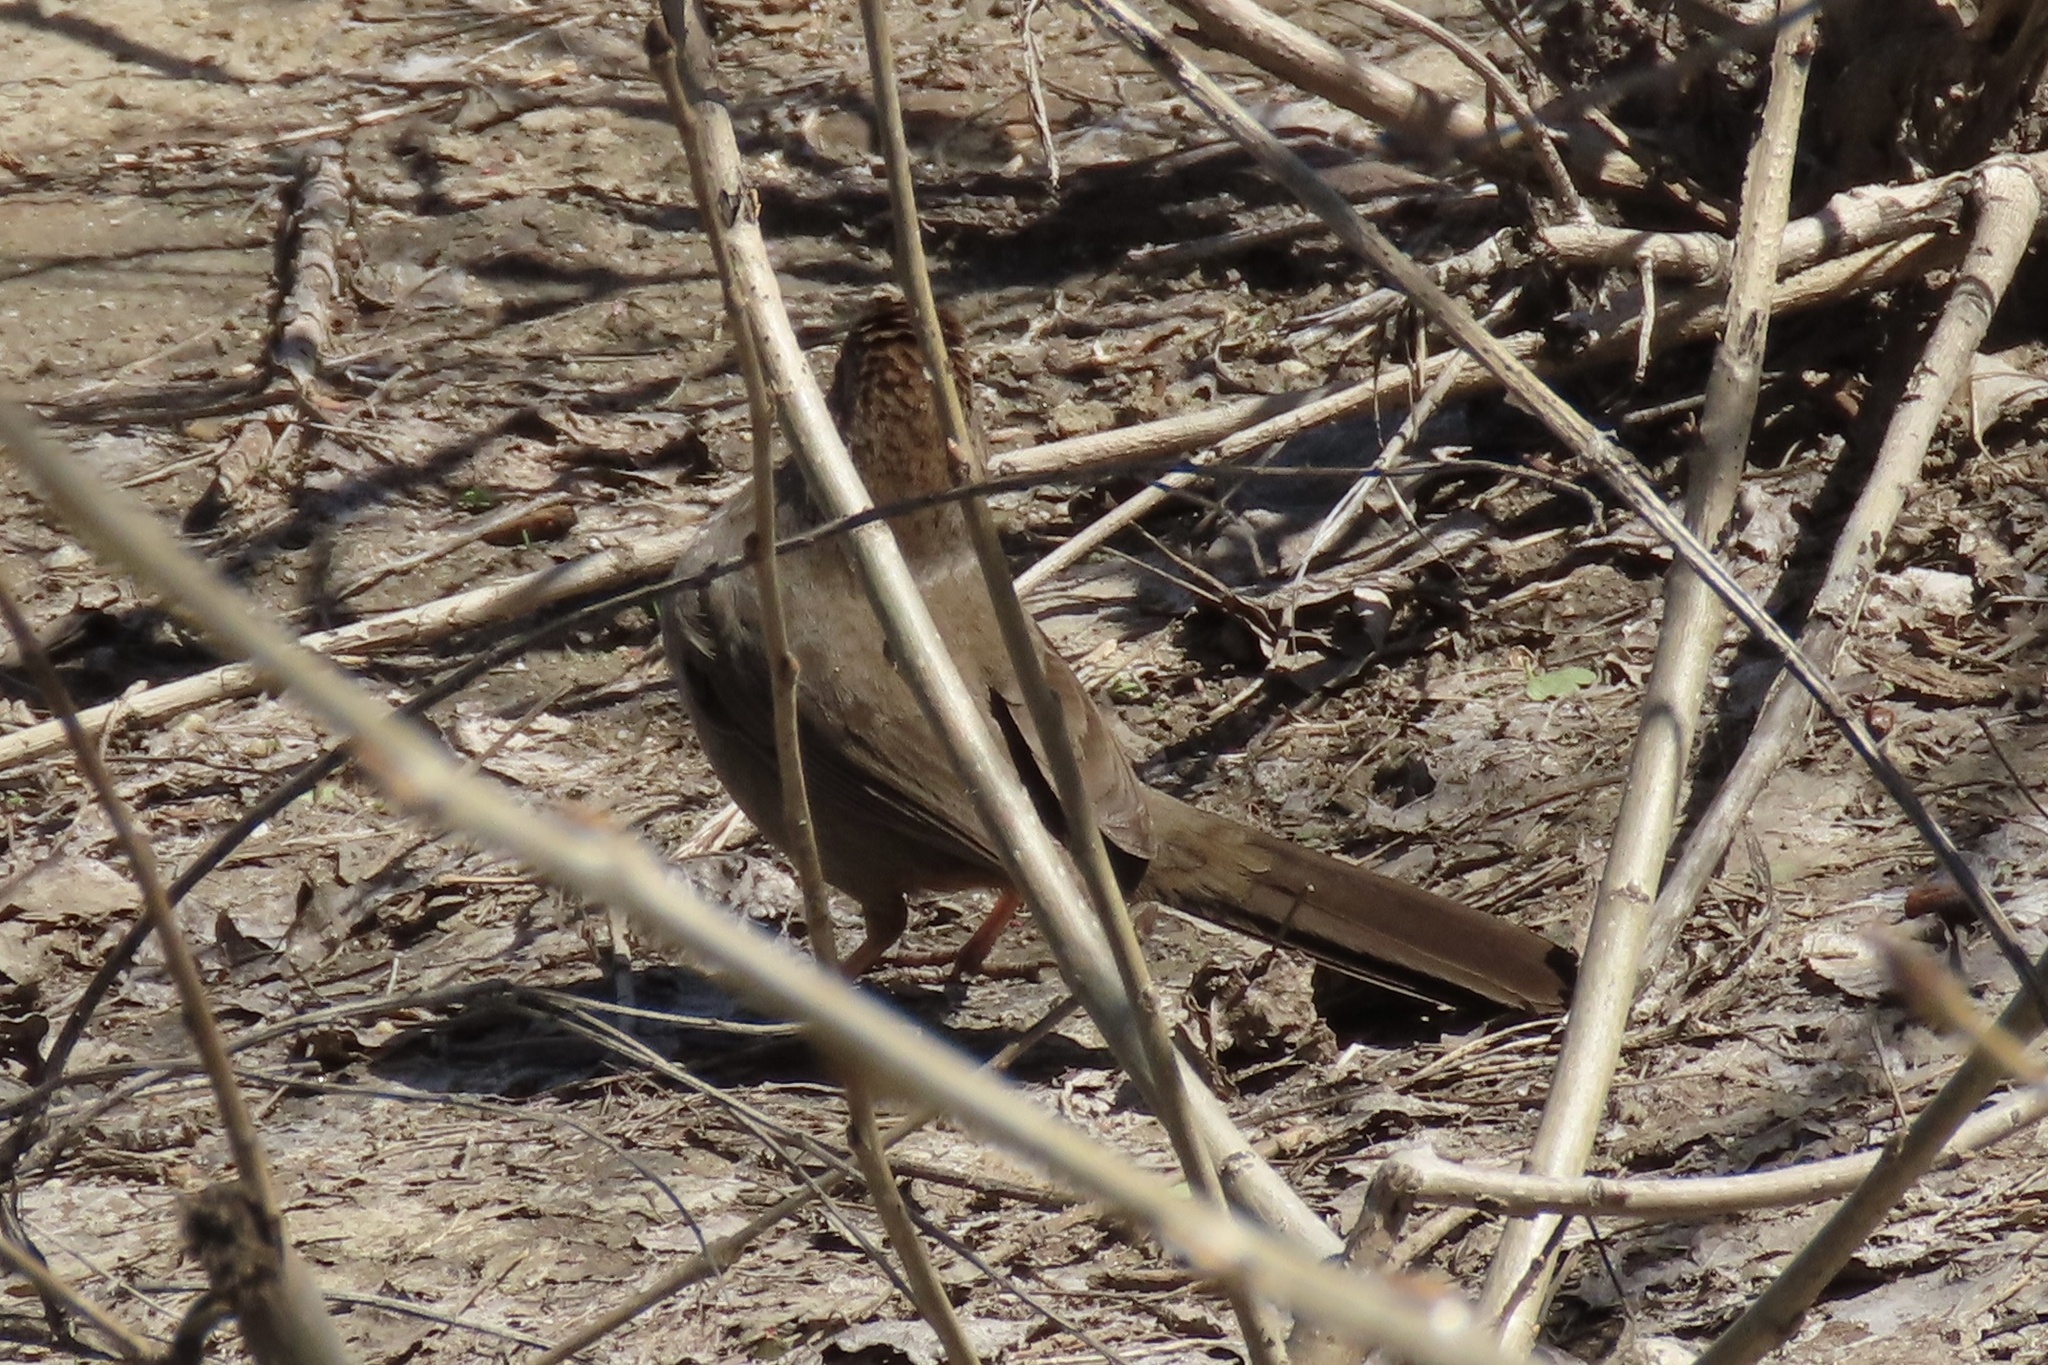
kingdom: Animalia
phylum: Chordata
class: Aves
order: Passeriformes
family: Passerellidae
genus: Melozone
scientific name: Melozone crissalis
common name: California towhee
